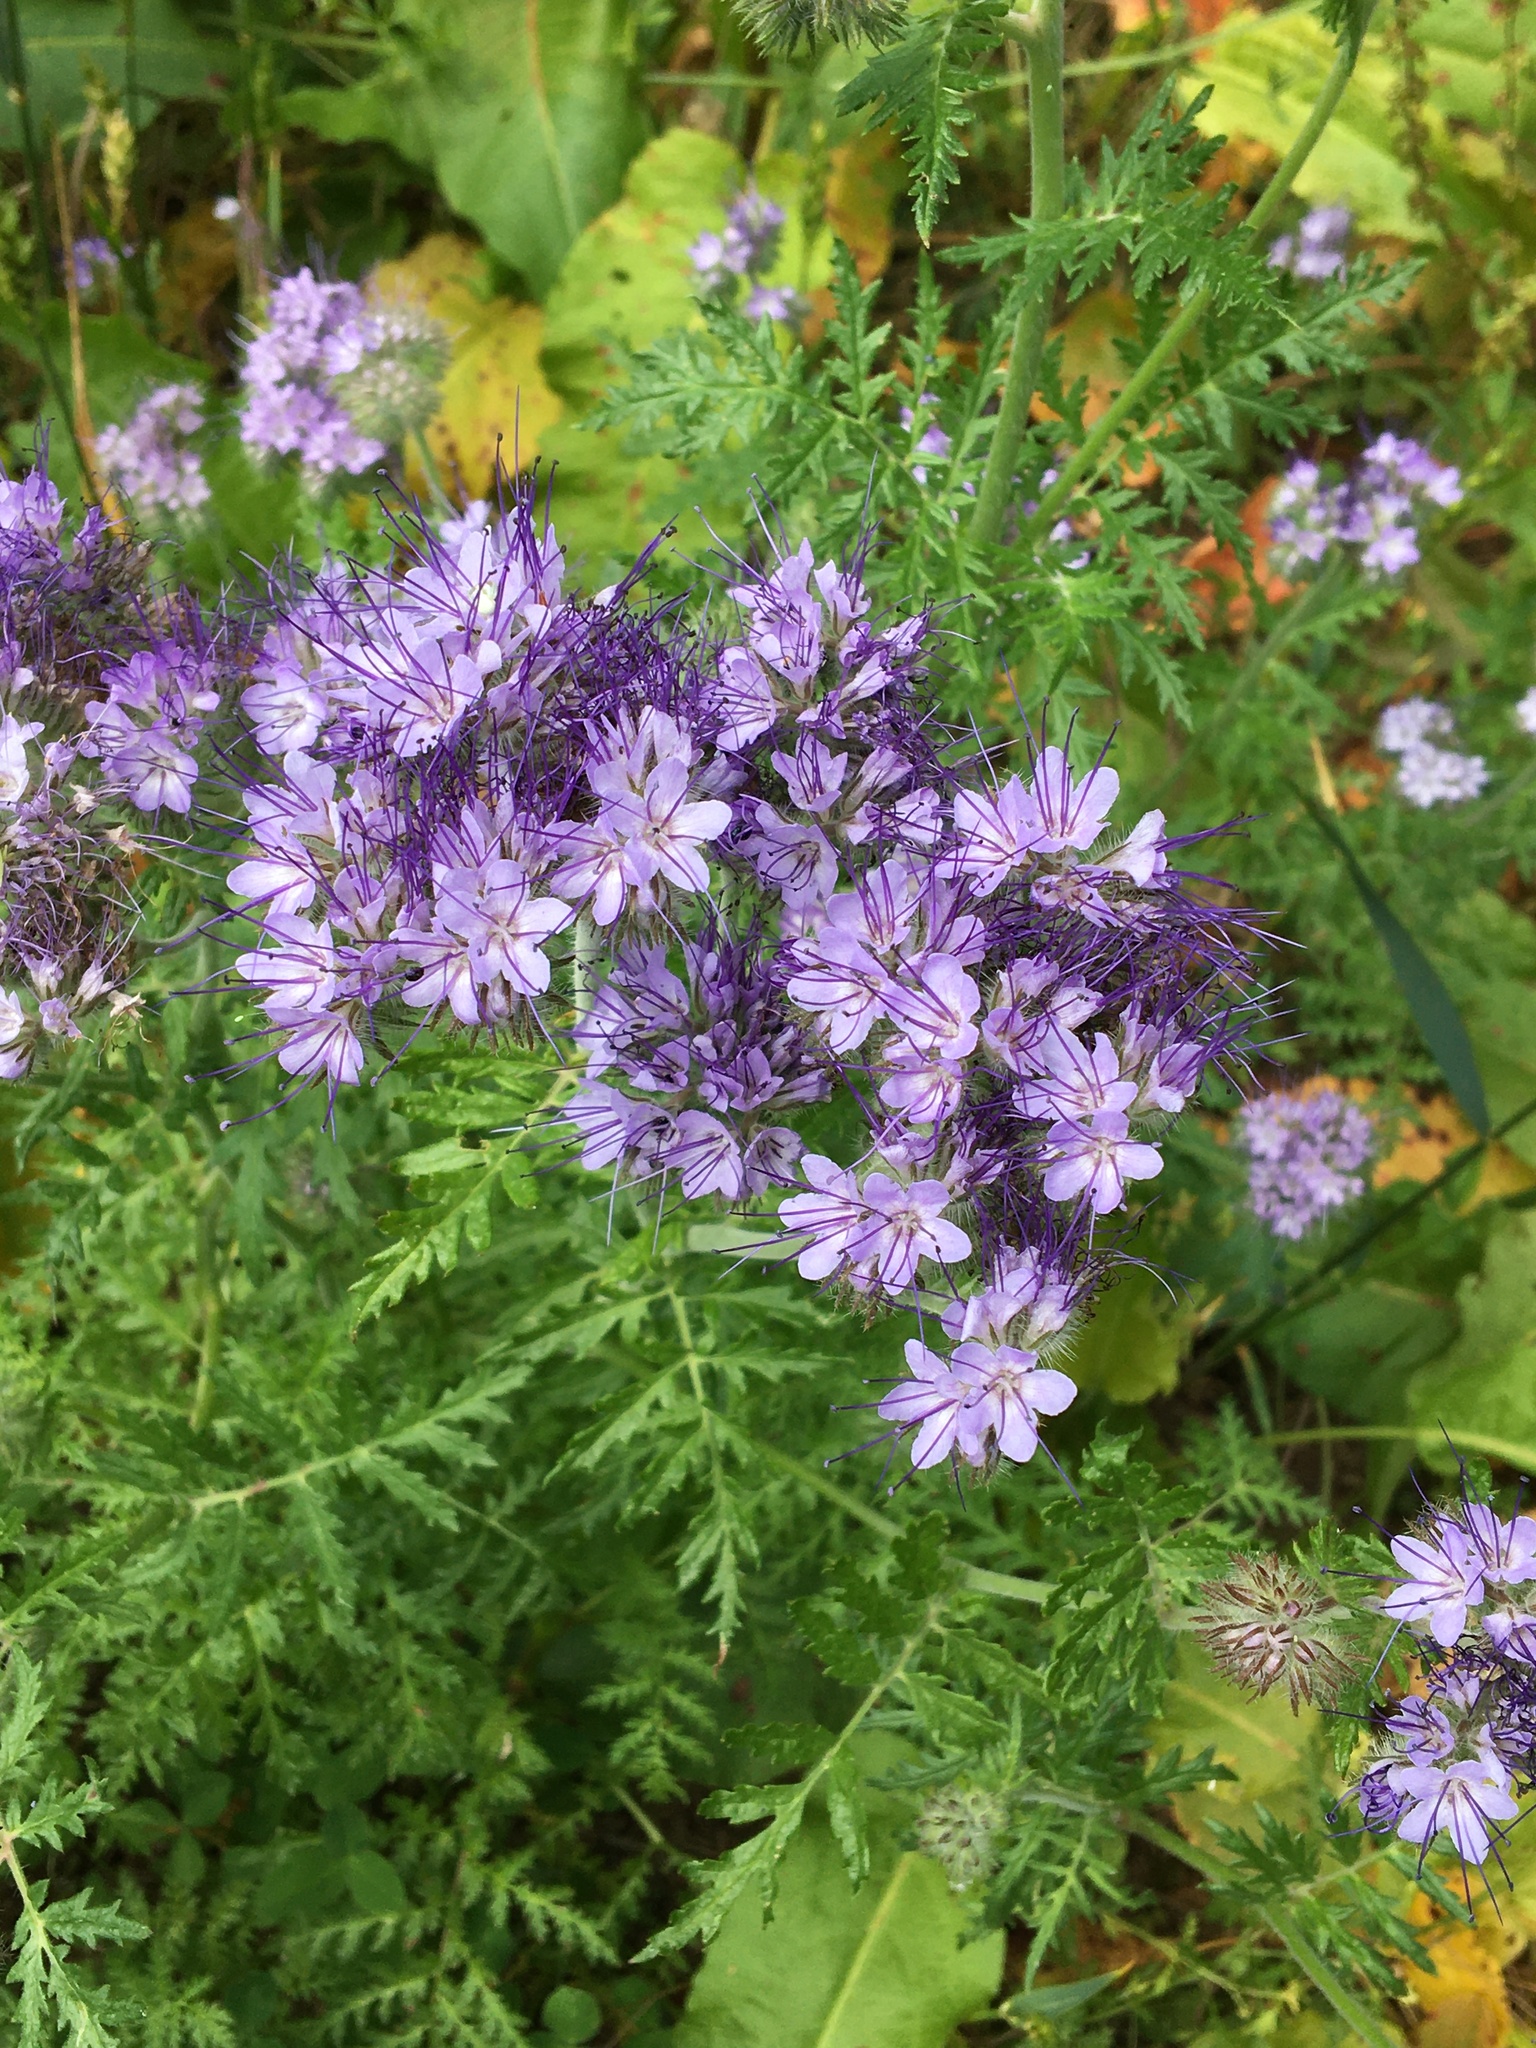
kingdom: Plantae
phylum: Tracheophyta
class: Magnoliopsida
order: Boraginales
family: Hydrophyllaceae
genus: Phacelia
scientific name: Phacelia tanacetifolia
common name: Phacelia
